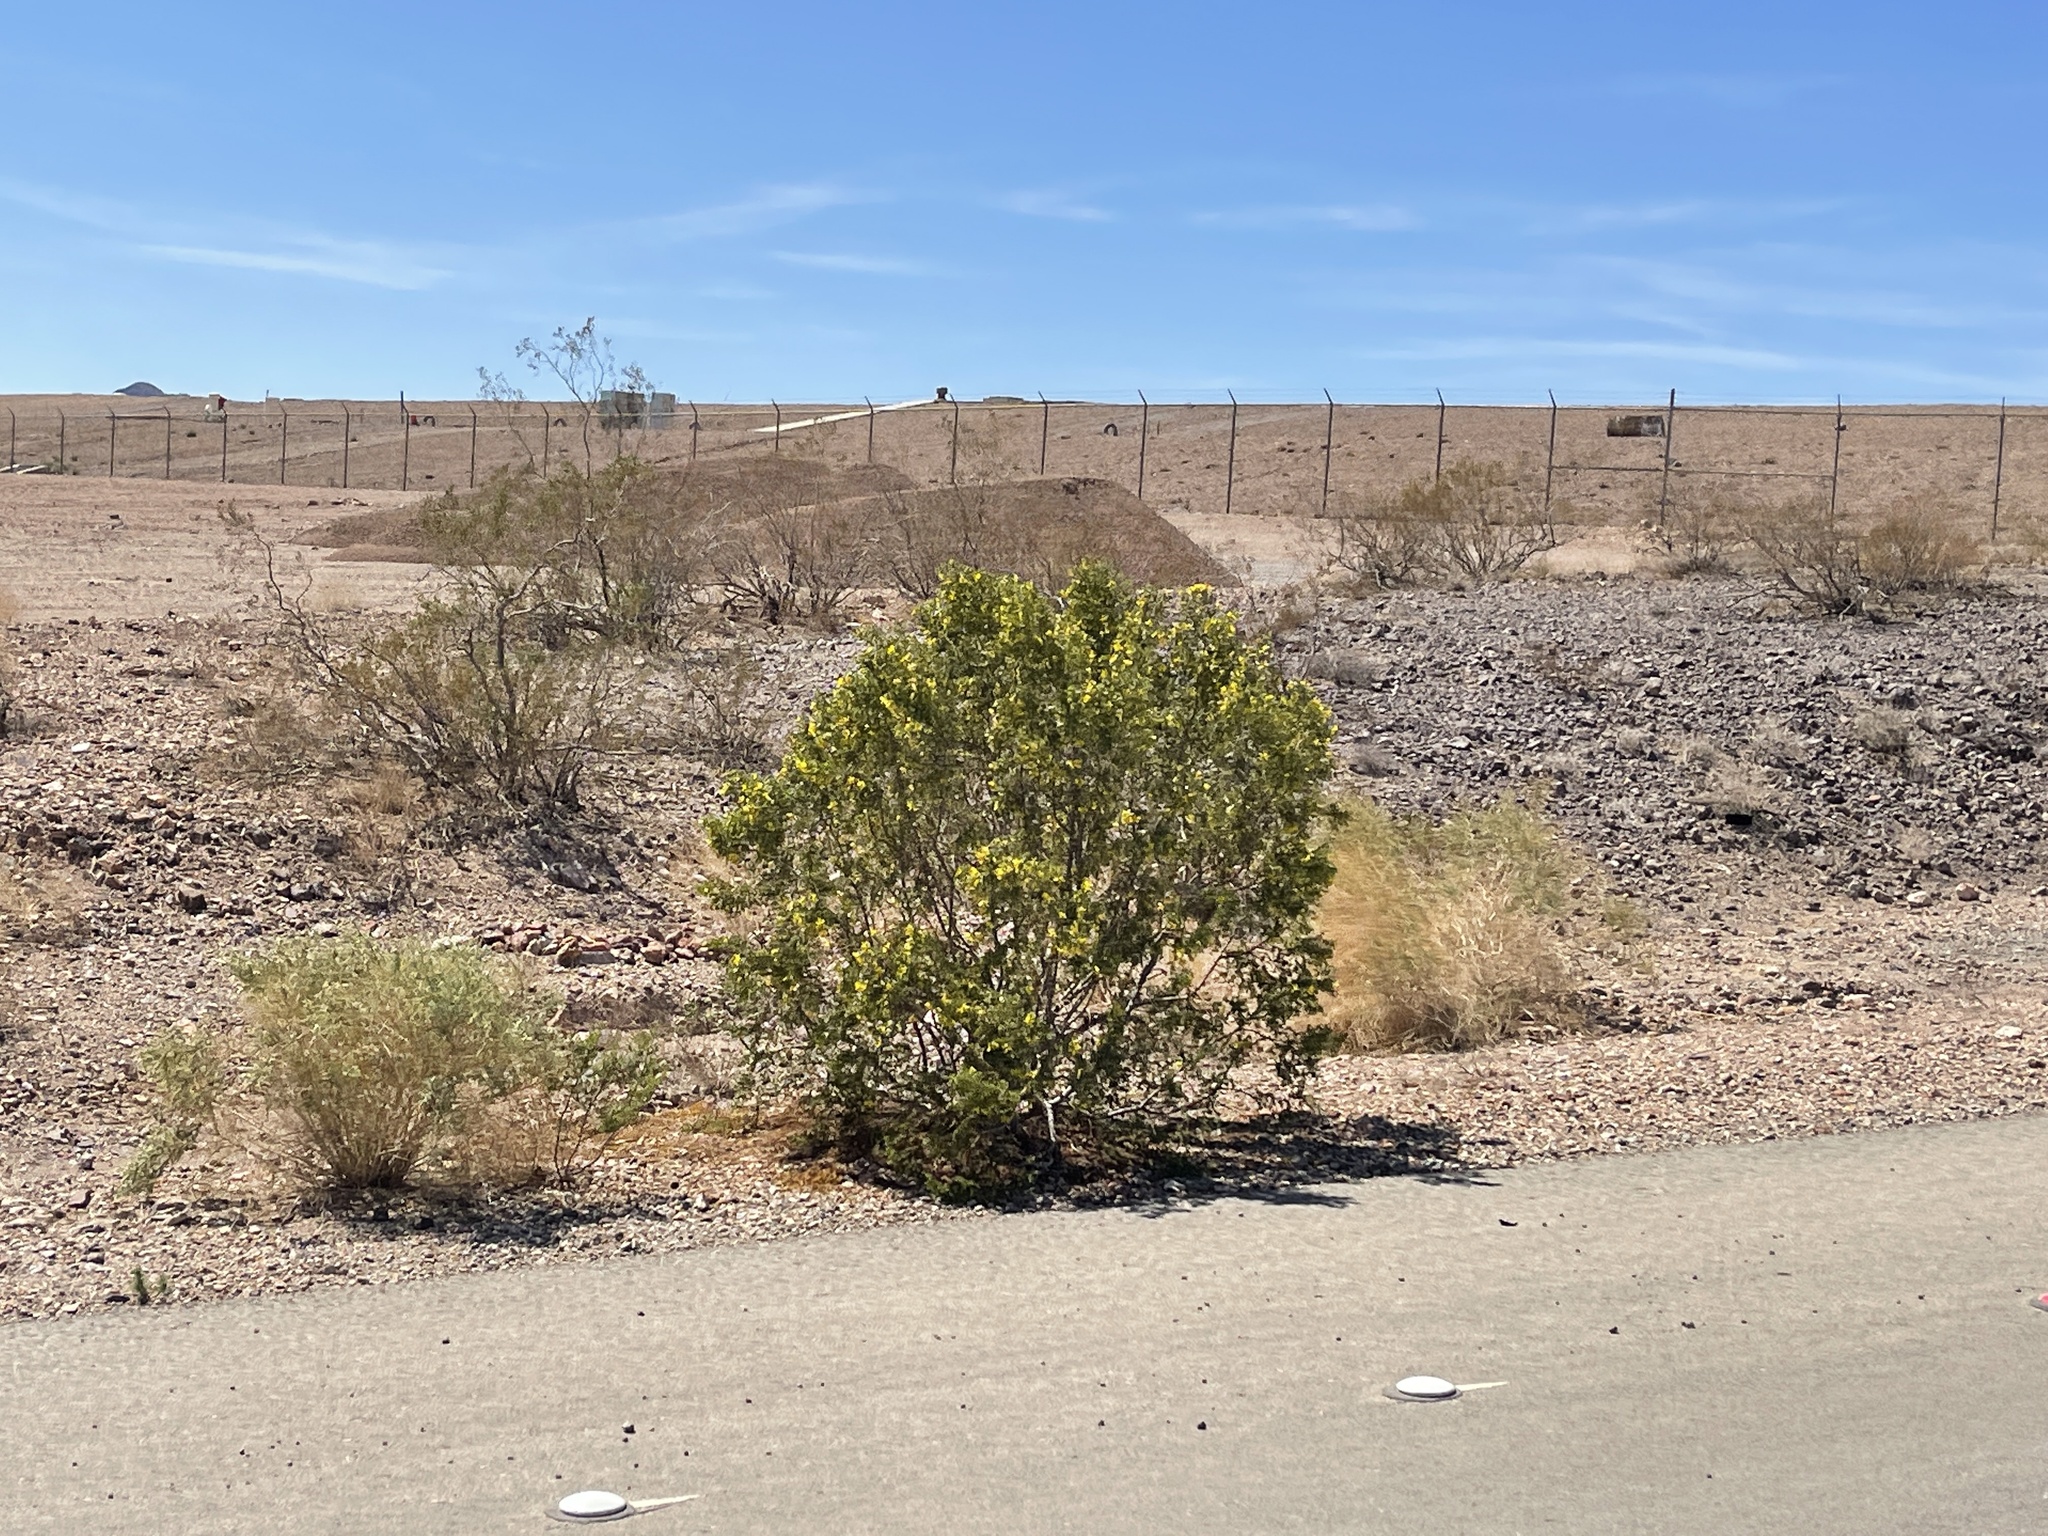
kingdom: Plantae
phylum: Tracheophyta
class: Magnoliopsida
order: Zygophyllales
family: Zygophyllaceae
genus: Larrea
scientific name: Larrea tridentata
